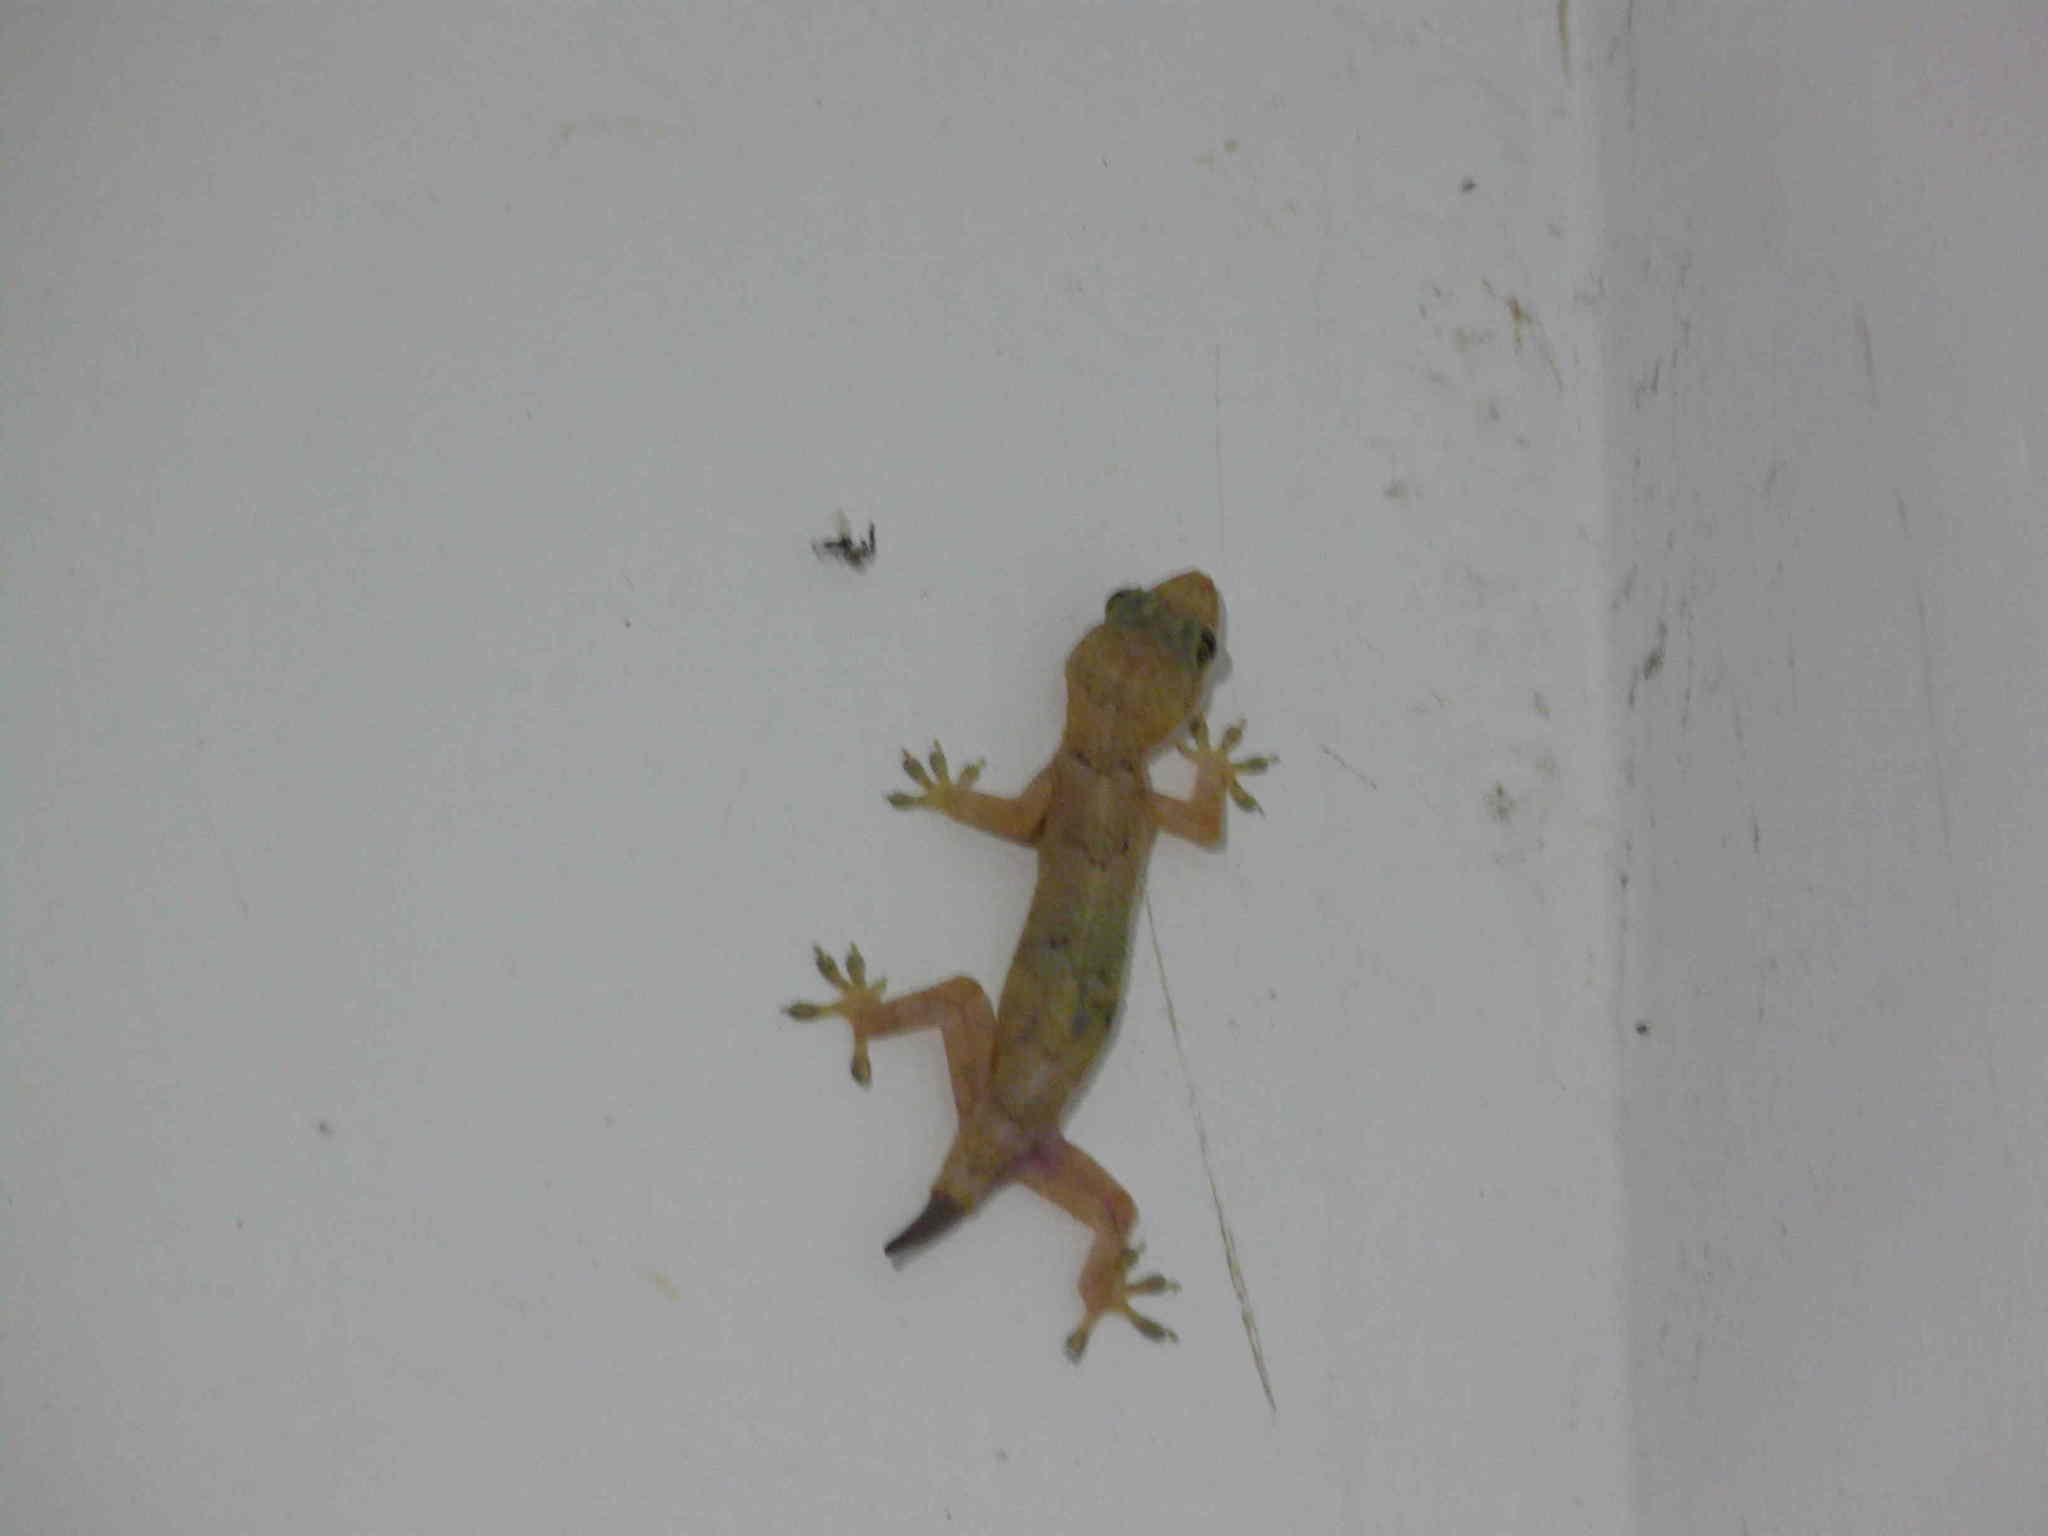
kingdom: Animalia
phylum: Chordata
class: Squamata
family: Gekkonidae
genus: Hemidactylus
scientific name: Hemidactylus mabouia
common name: House gecko
